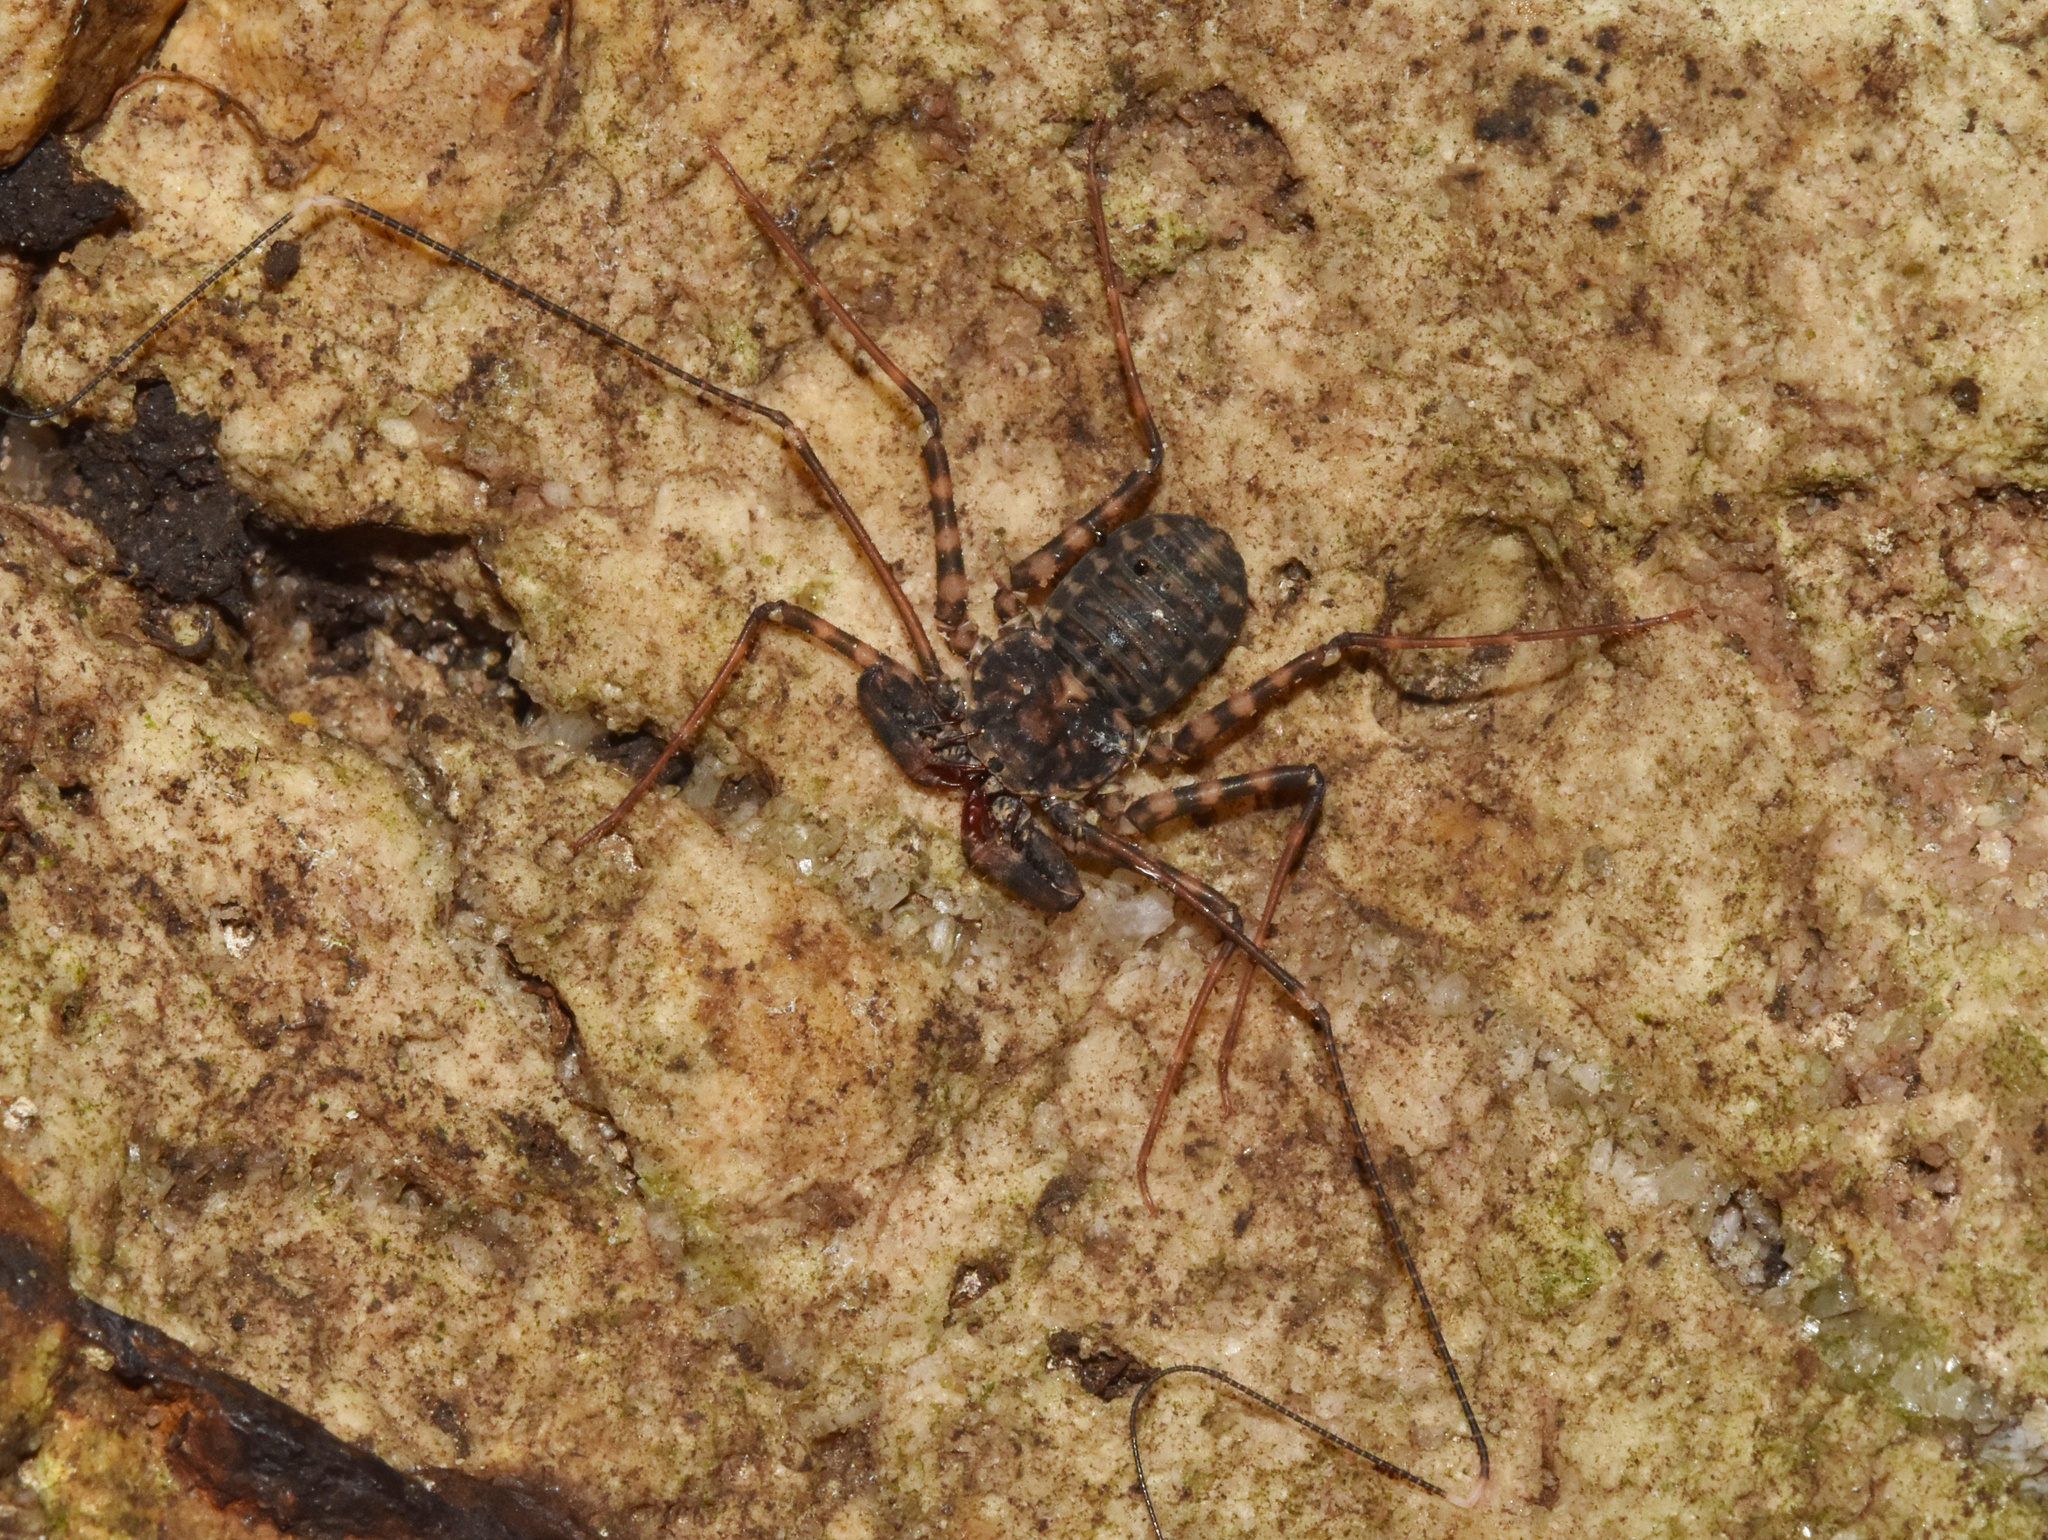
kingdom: Animalia
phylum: Arthropoda
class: Arachnida
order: Amblypygi
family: Phrynichidae
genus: Damon
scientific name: Damon annulatipes
